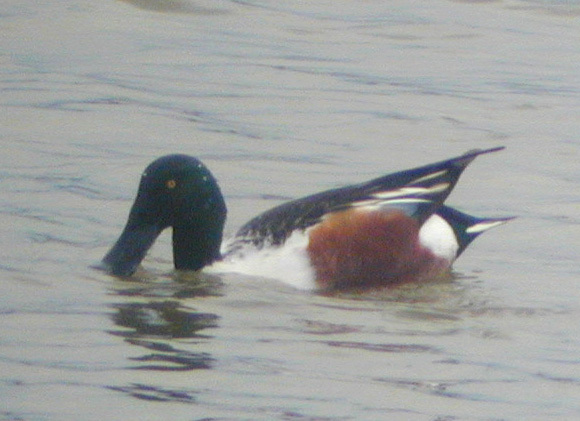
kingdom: Animalia
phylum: Chordata
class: Aves
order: Anseriformes
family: Anatidae
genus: Spatula
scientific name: Spatula clypeata
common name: Northern shoveler
